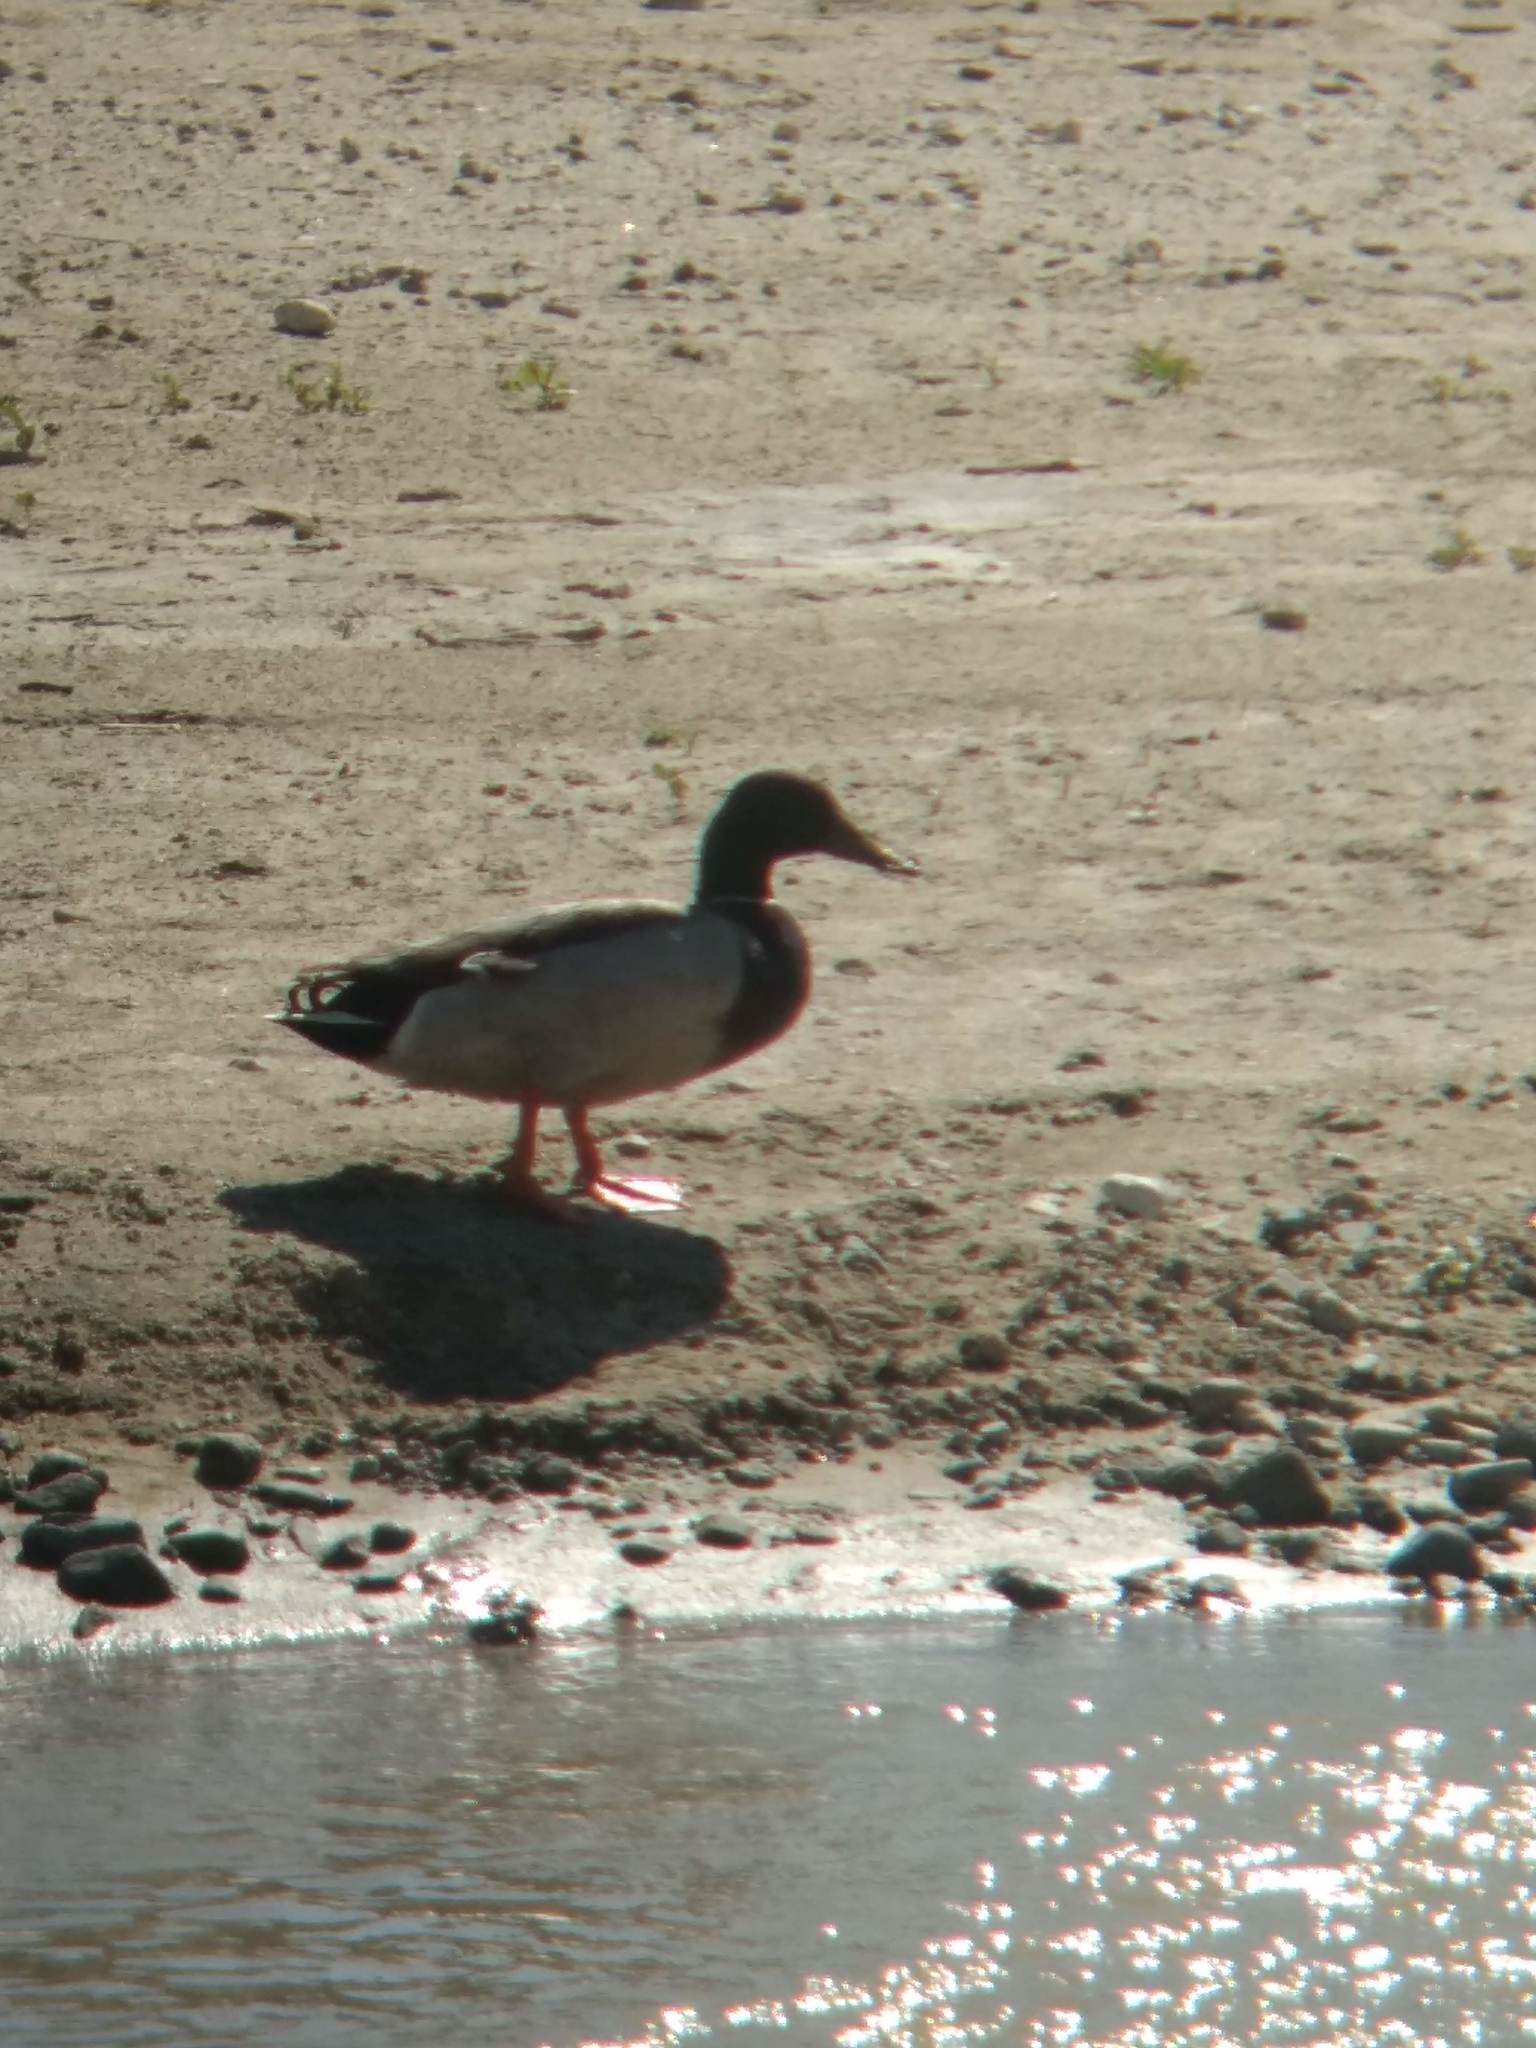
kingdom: Animalia
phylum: Chordata
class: Aves
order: Anseriformes
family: Anatidae
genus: Anas
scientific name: Anas platyrhynchos
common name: Mallard
